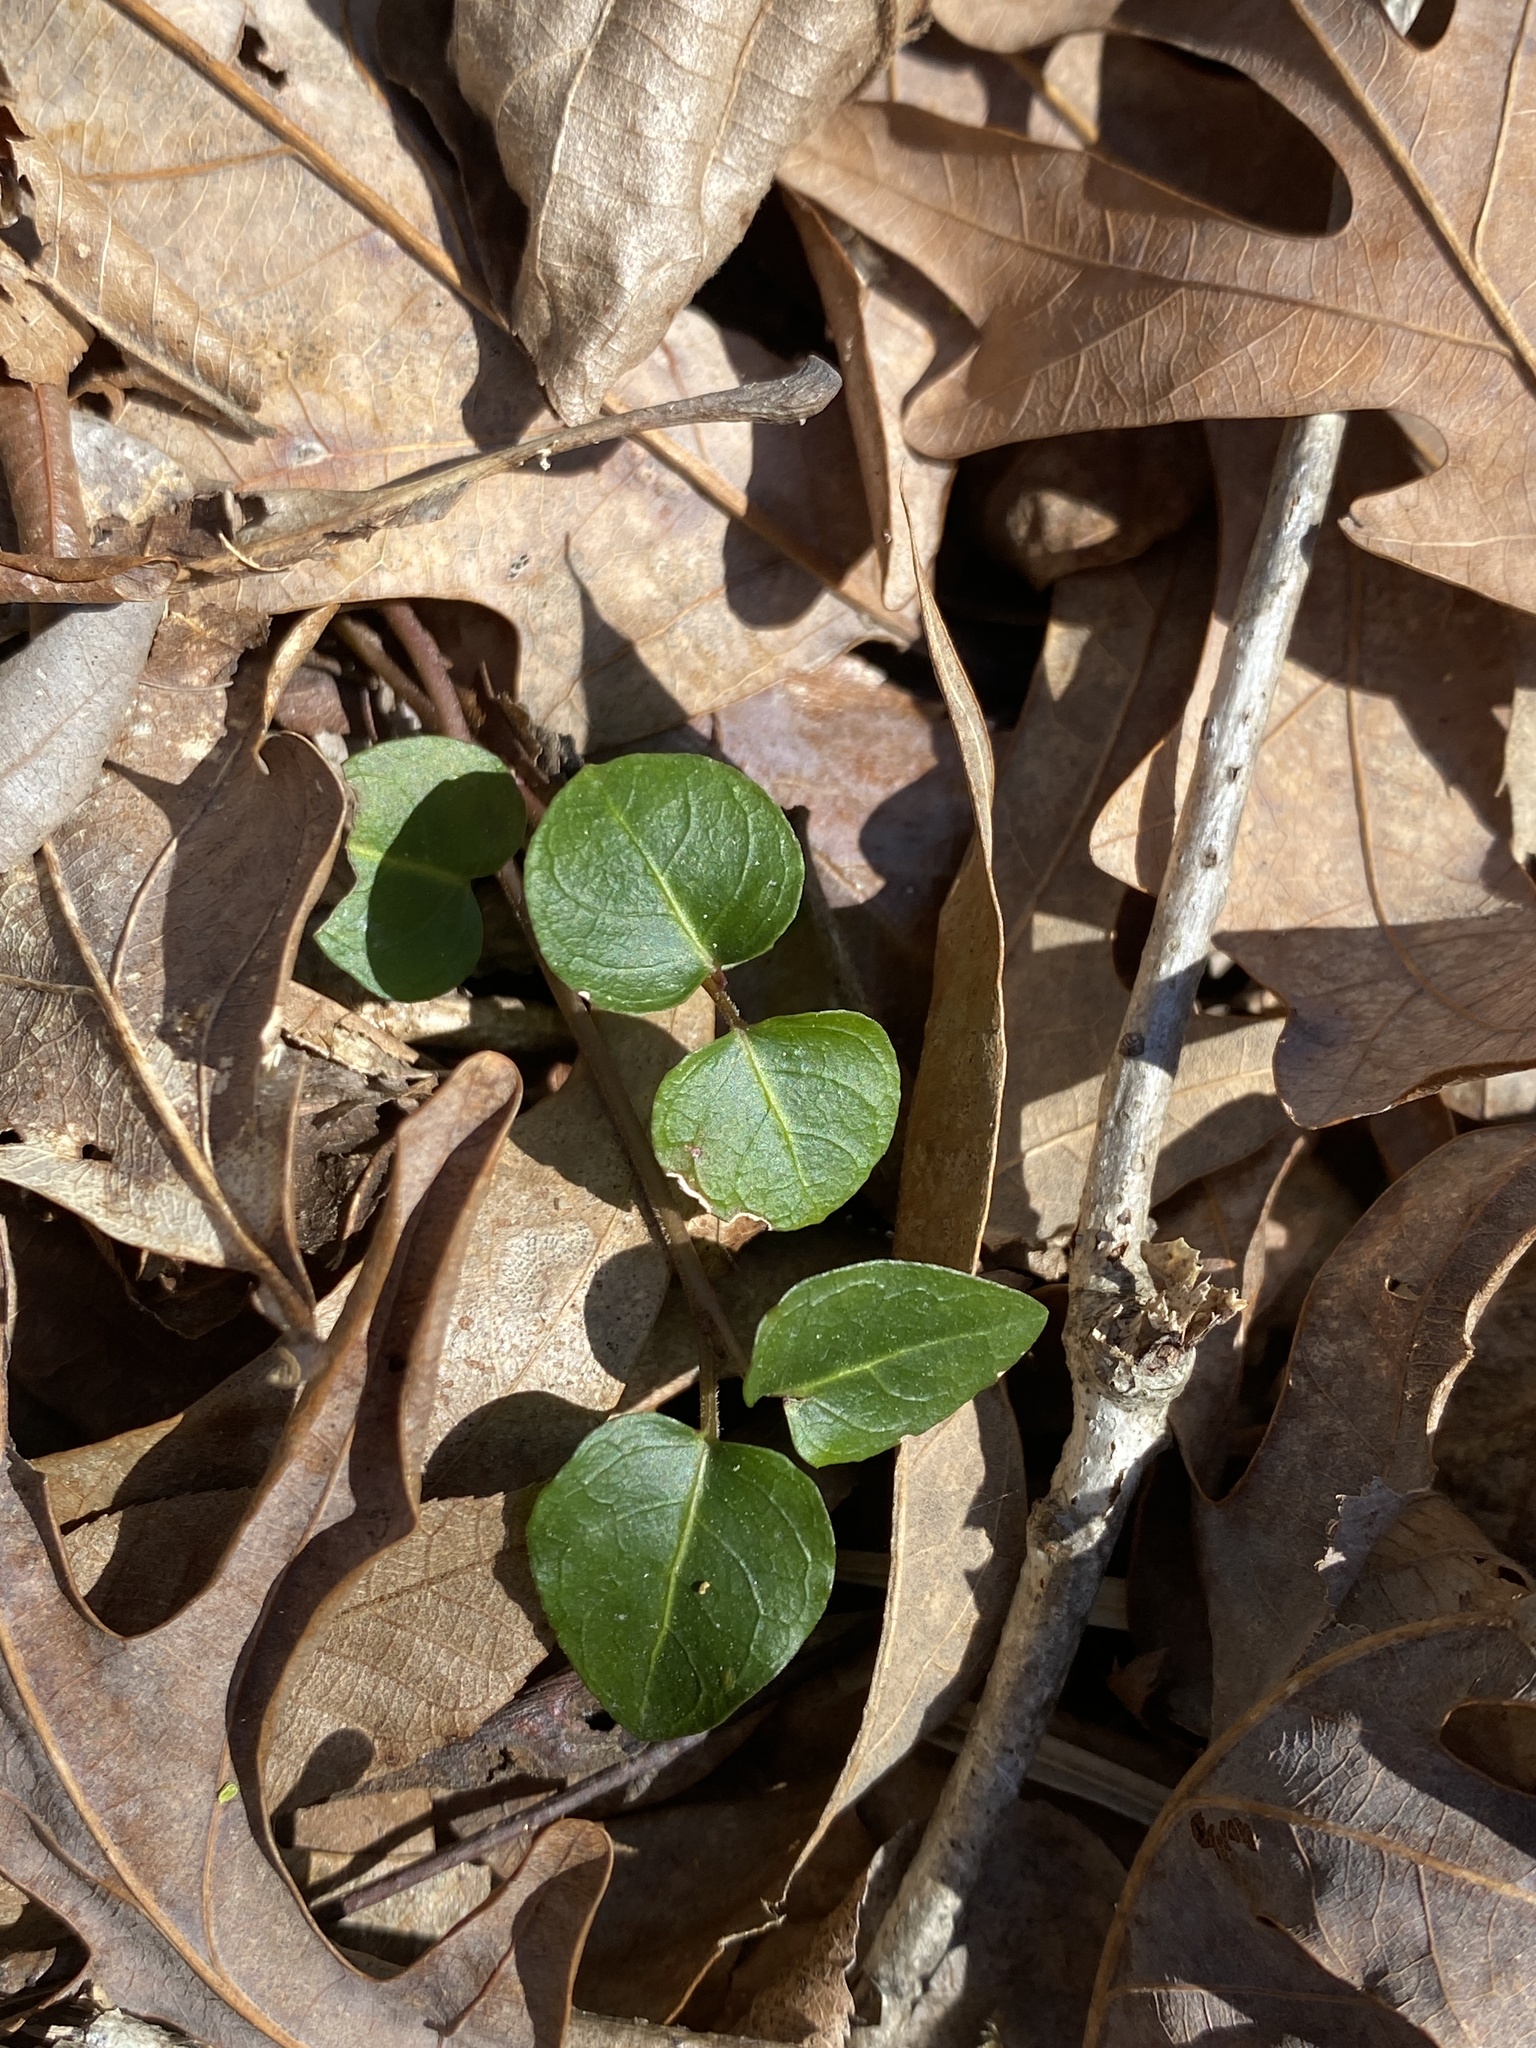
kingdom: Plantae
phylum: Tracheophyta
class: Magnoliopsida
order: Gentianales
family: Rubiaceae
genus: Mitchella
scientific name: Mitchella repens
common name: Partridge-berry
